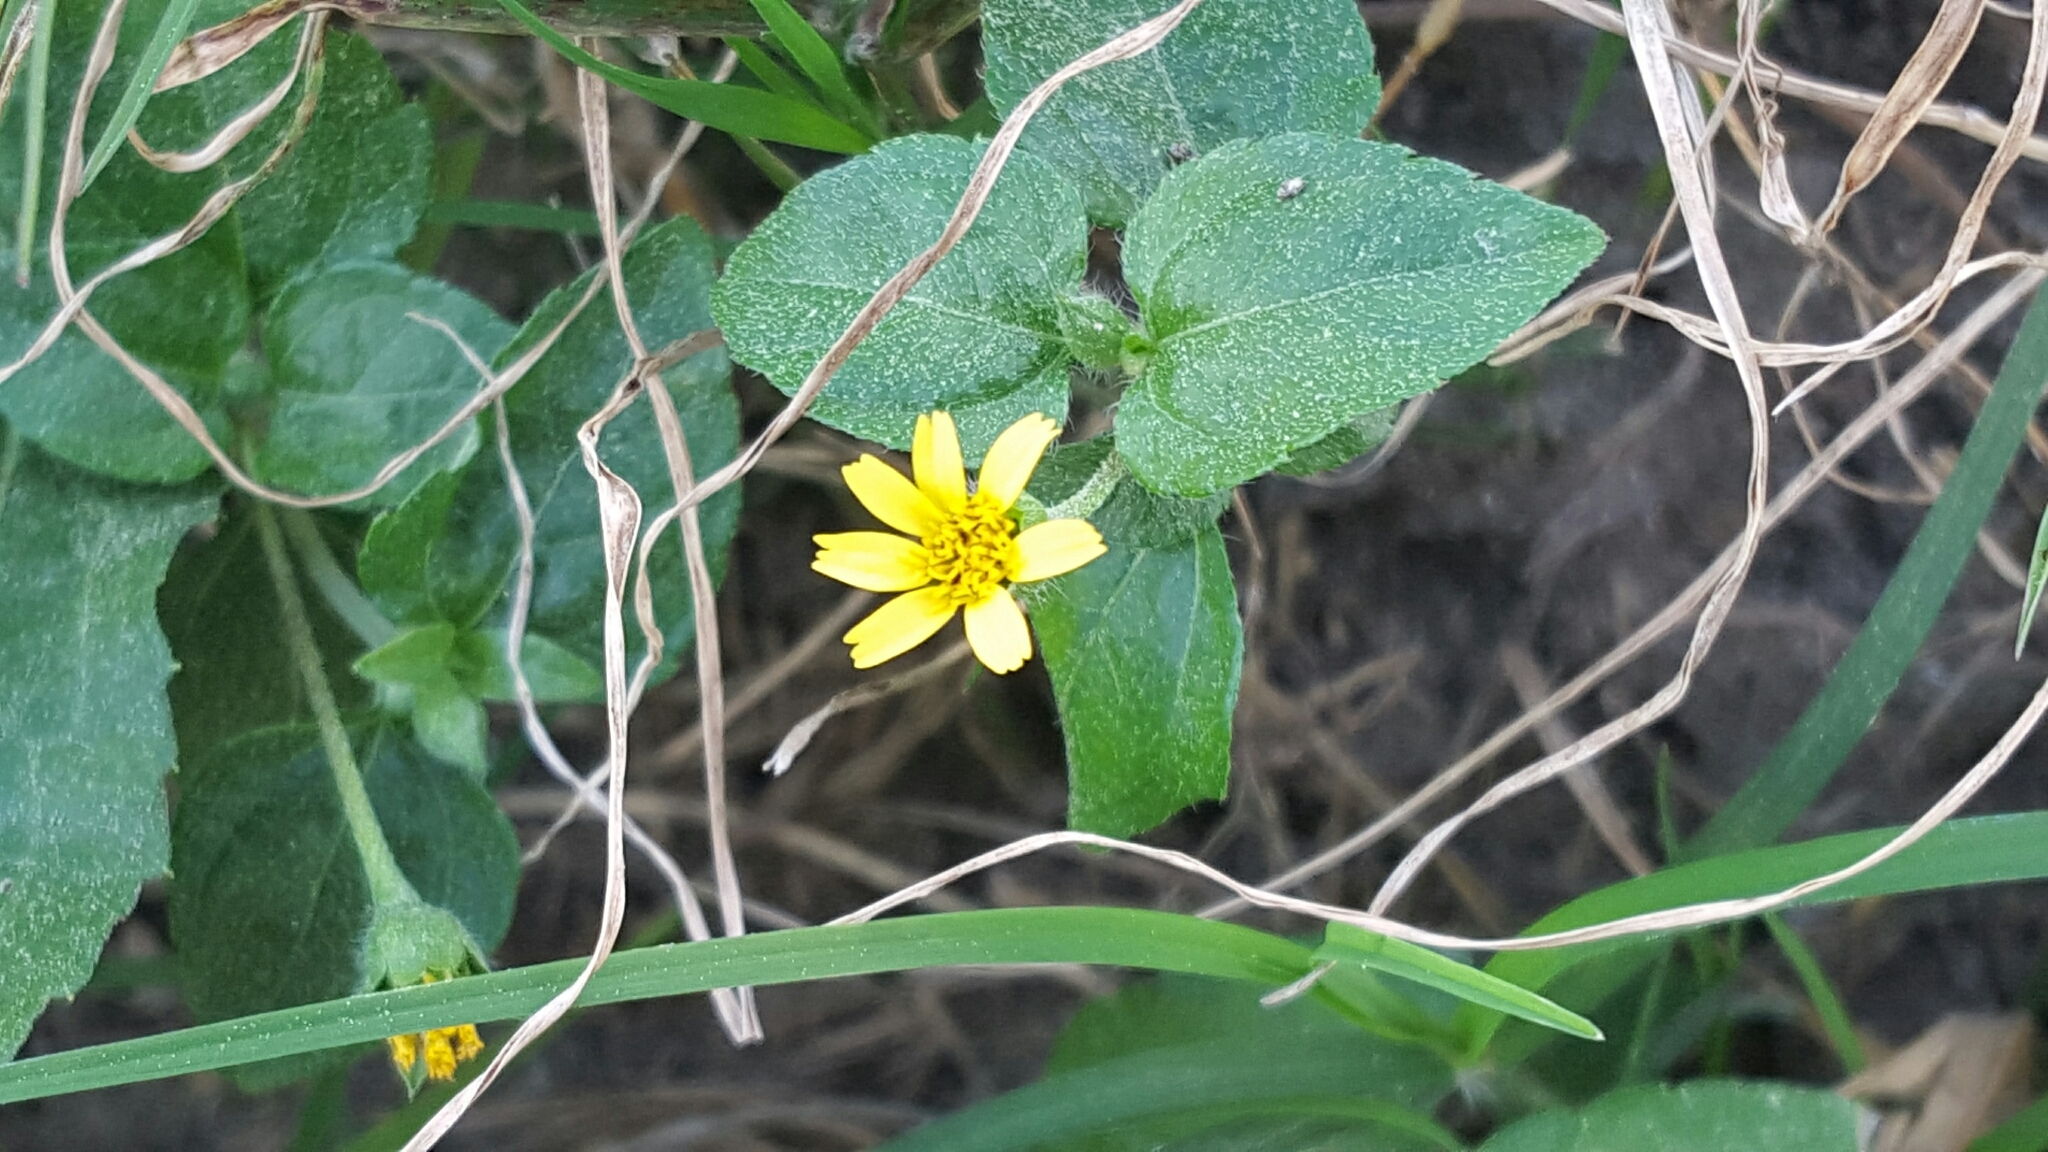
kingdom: Plantae
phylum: Tracheophyta
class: Magnoliopsida
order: Asterales
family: Asteraceae
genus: Calyptocarpus
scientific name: Calyptocarpus vialis
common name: Straggler daisy
